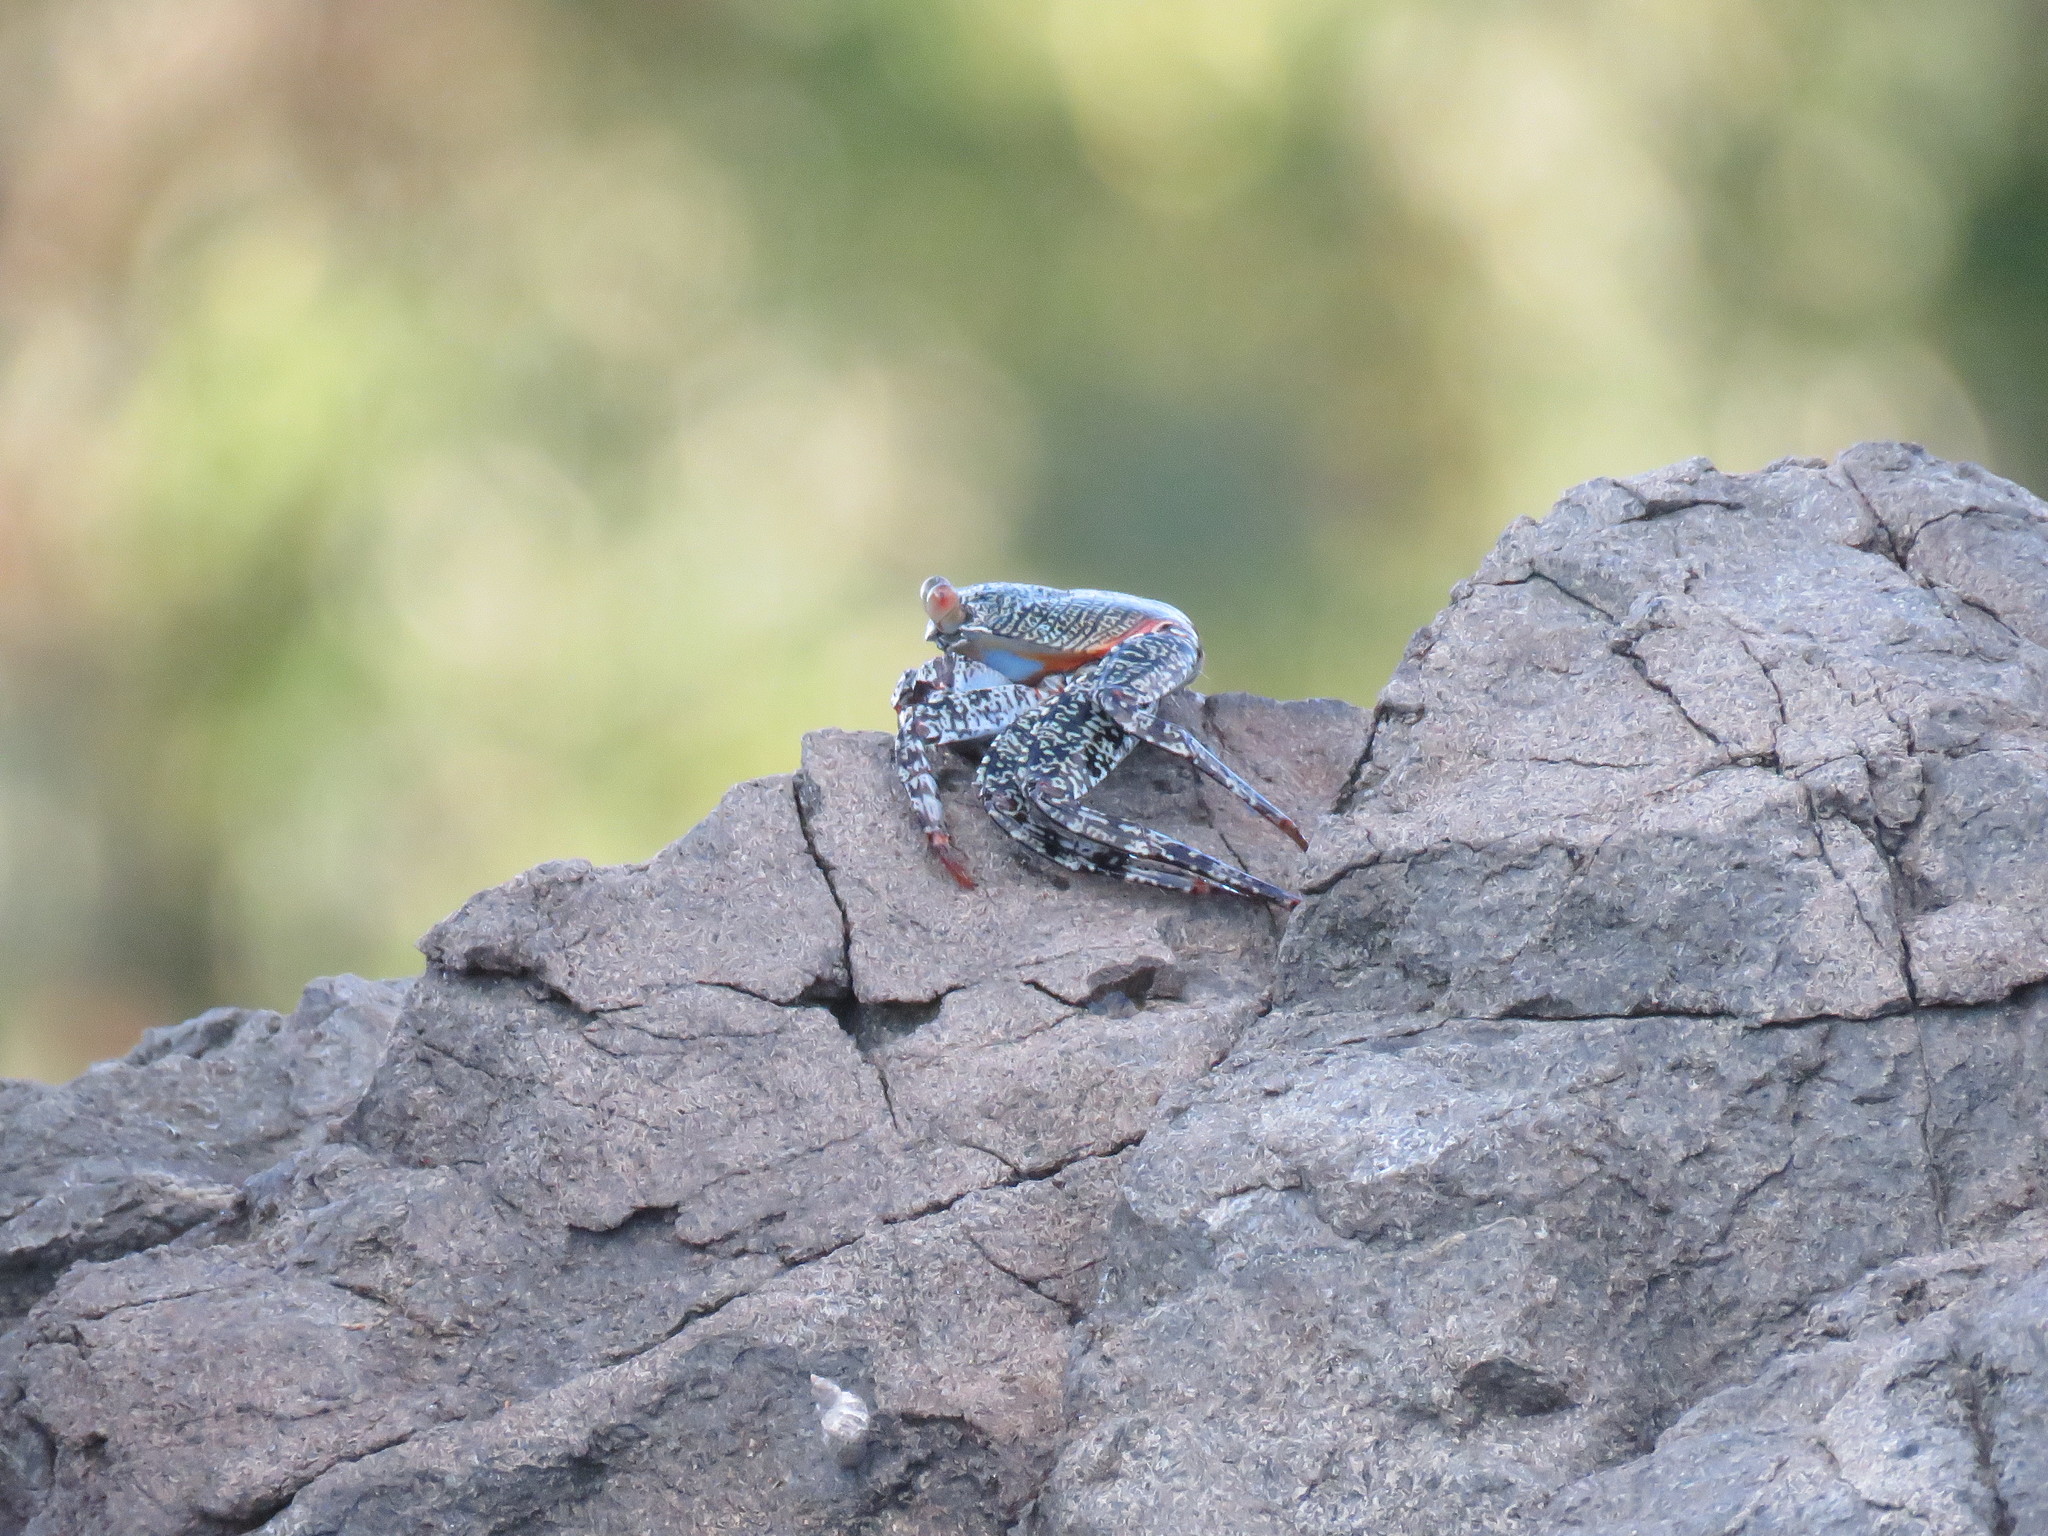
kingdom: Animalia
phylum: Arthropoda
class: Malacostraca
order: Decapoda
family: Grapsidae
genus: Grapsus
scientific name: Grapsus grapsus
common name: Sally lightfoot
